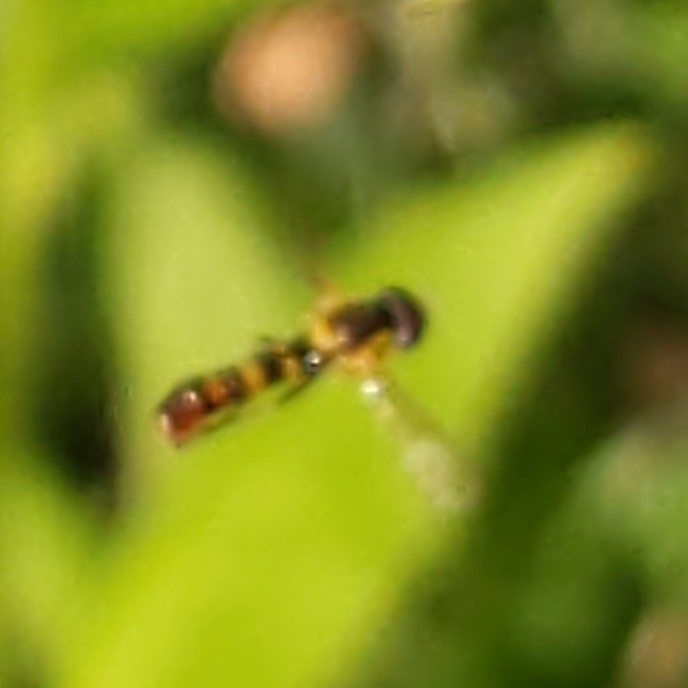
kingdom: Animalia
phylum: Arthropoda
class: Insecta
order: Diptera
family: Syrphidae
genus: Sphaerophoria
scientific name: Sphaerophoria
